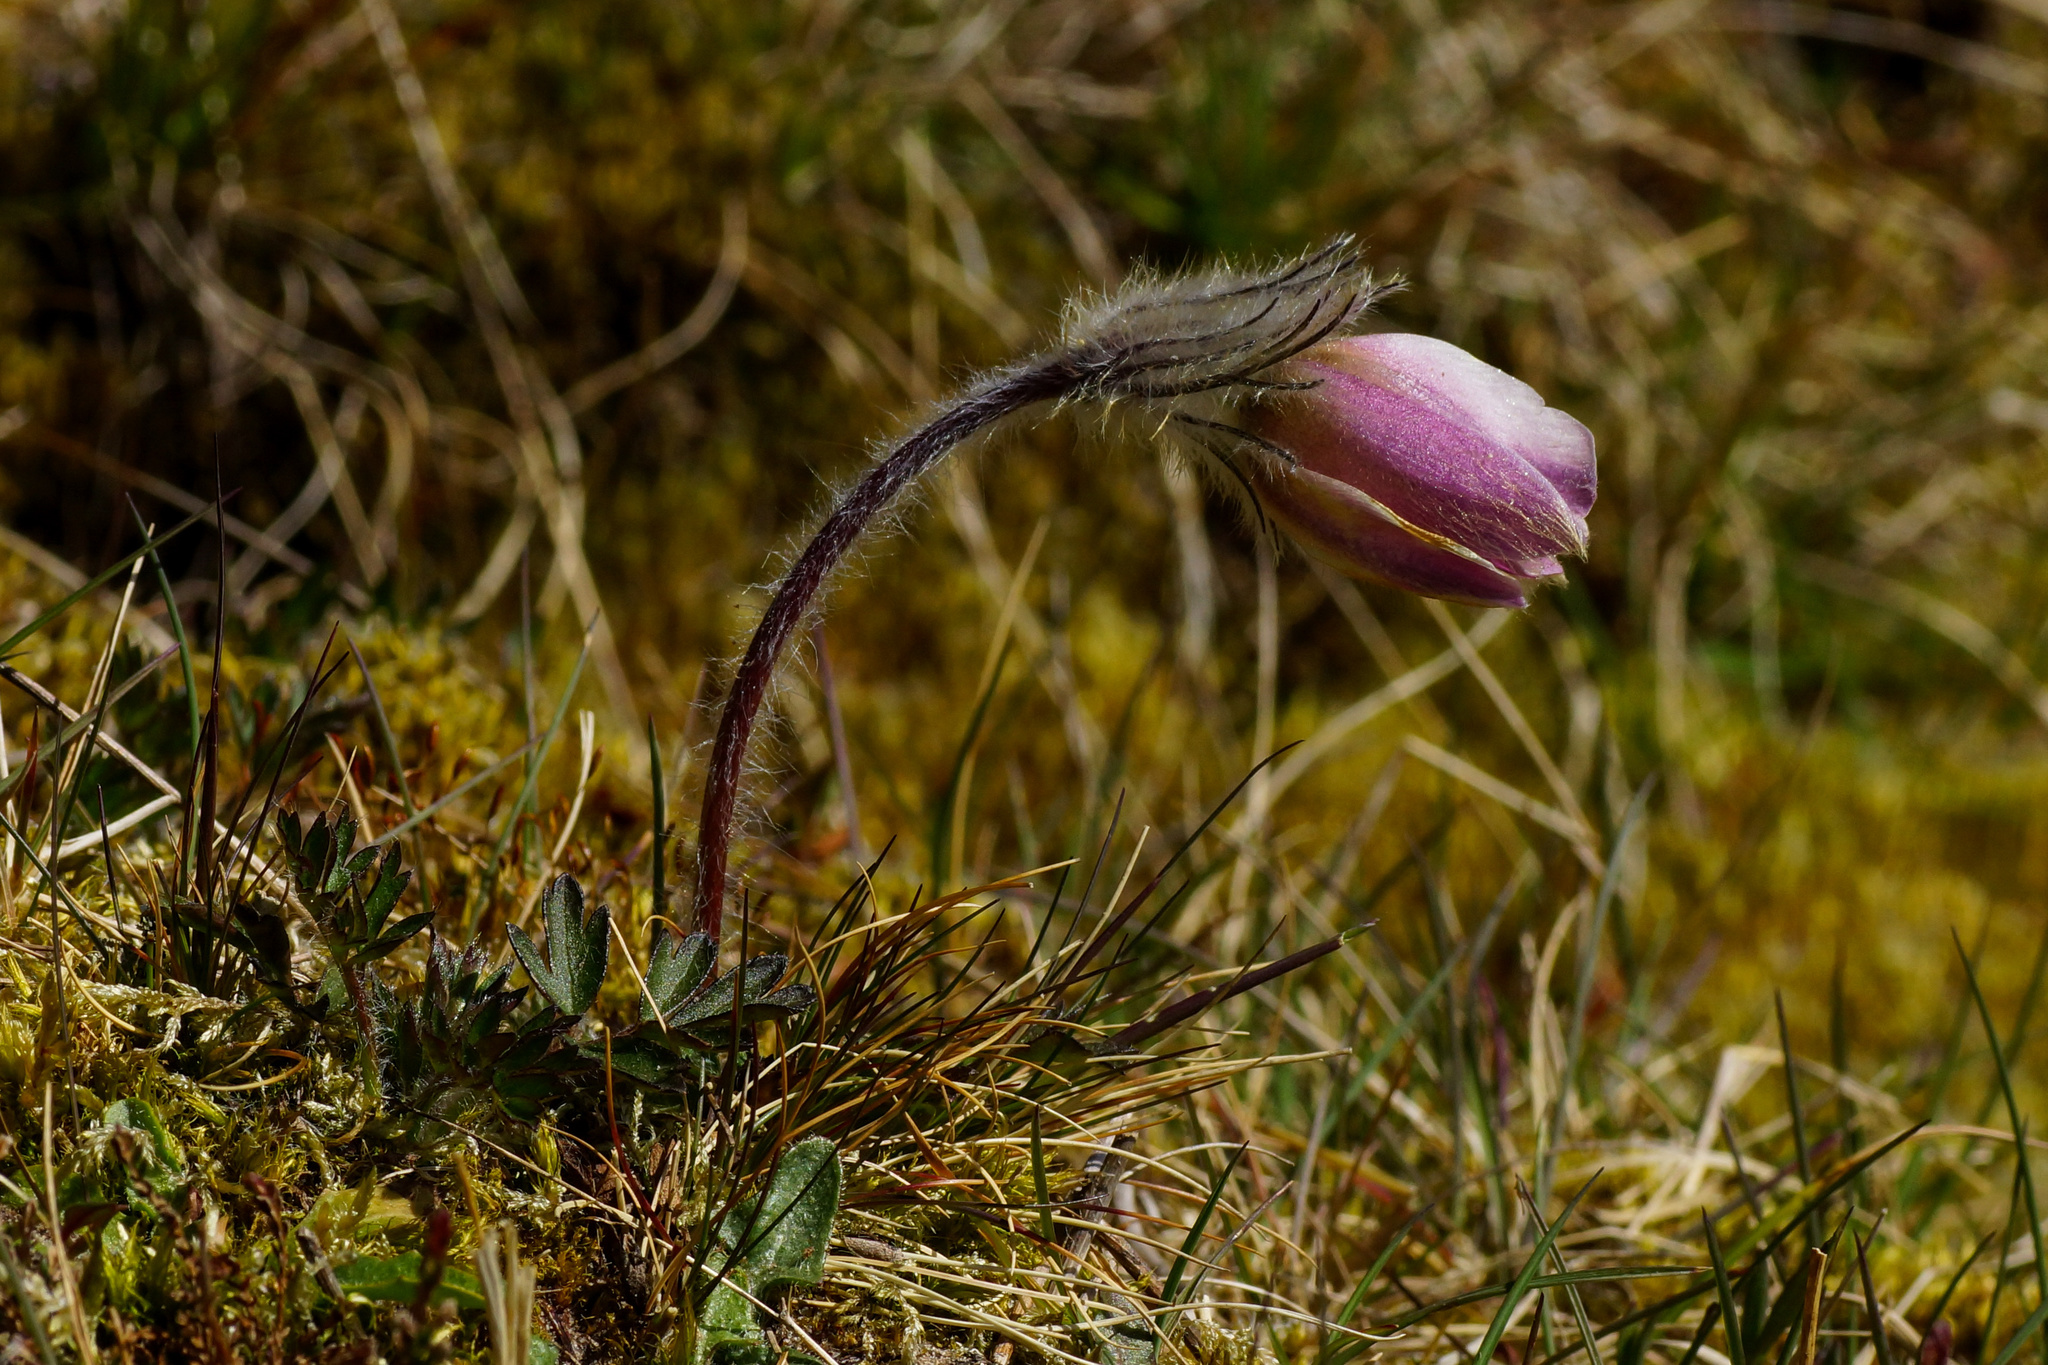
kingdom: Plantae
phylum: Tracheophyta
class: Magnoliopsida
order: Ranunculales
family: Ranunculaceae
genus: Pulsatilla
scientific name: Pulsatilla vernalis
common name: Spring pasque flower
